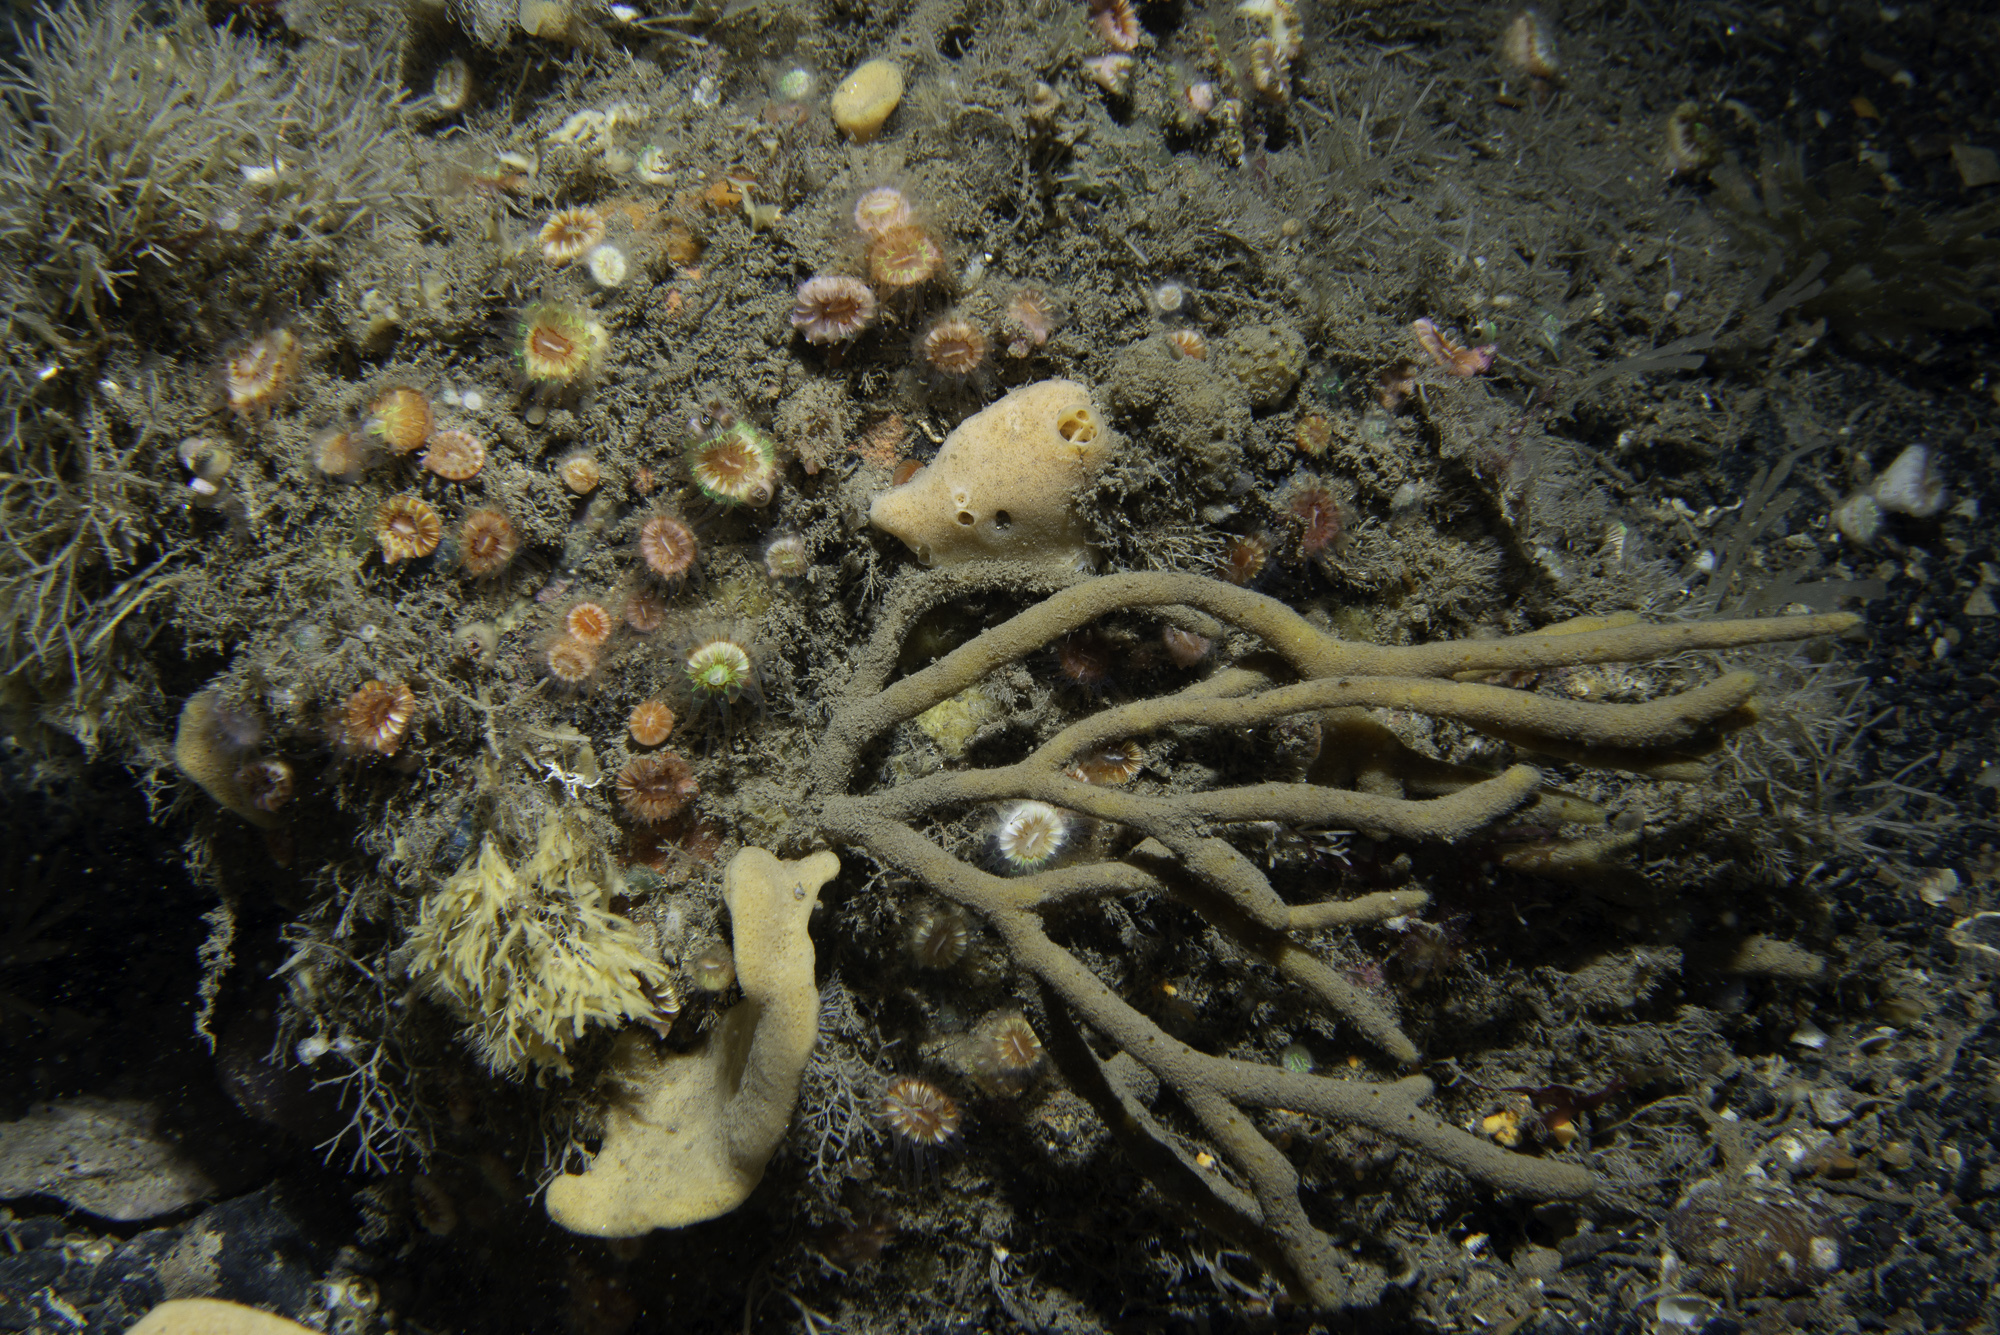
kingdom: Animalia
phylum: Porifera
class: Demospongiae
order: Axinellida
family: Raspailiidae
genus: Raspailia
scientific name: Raspailia hispida
